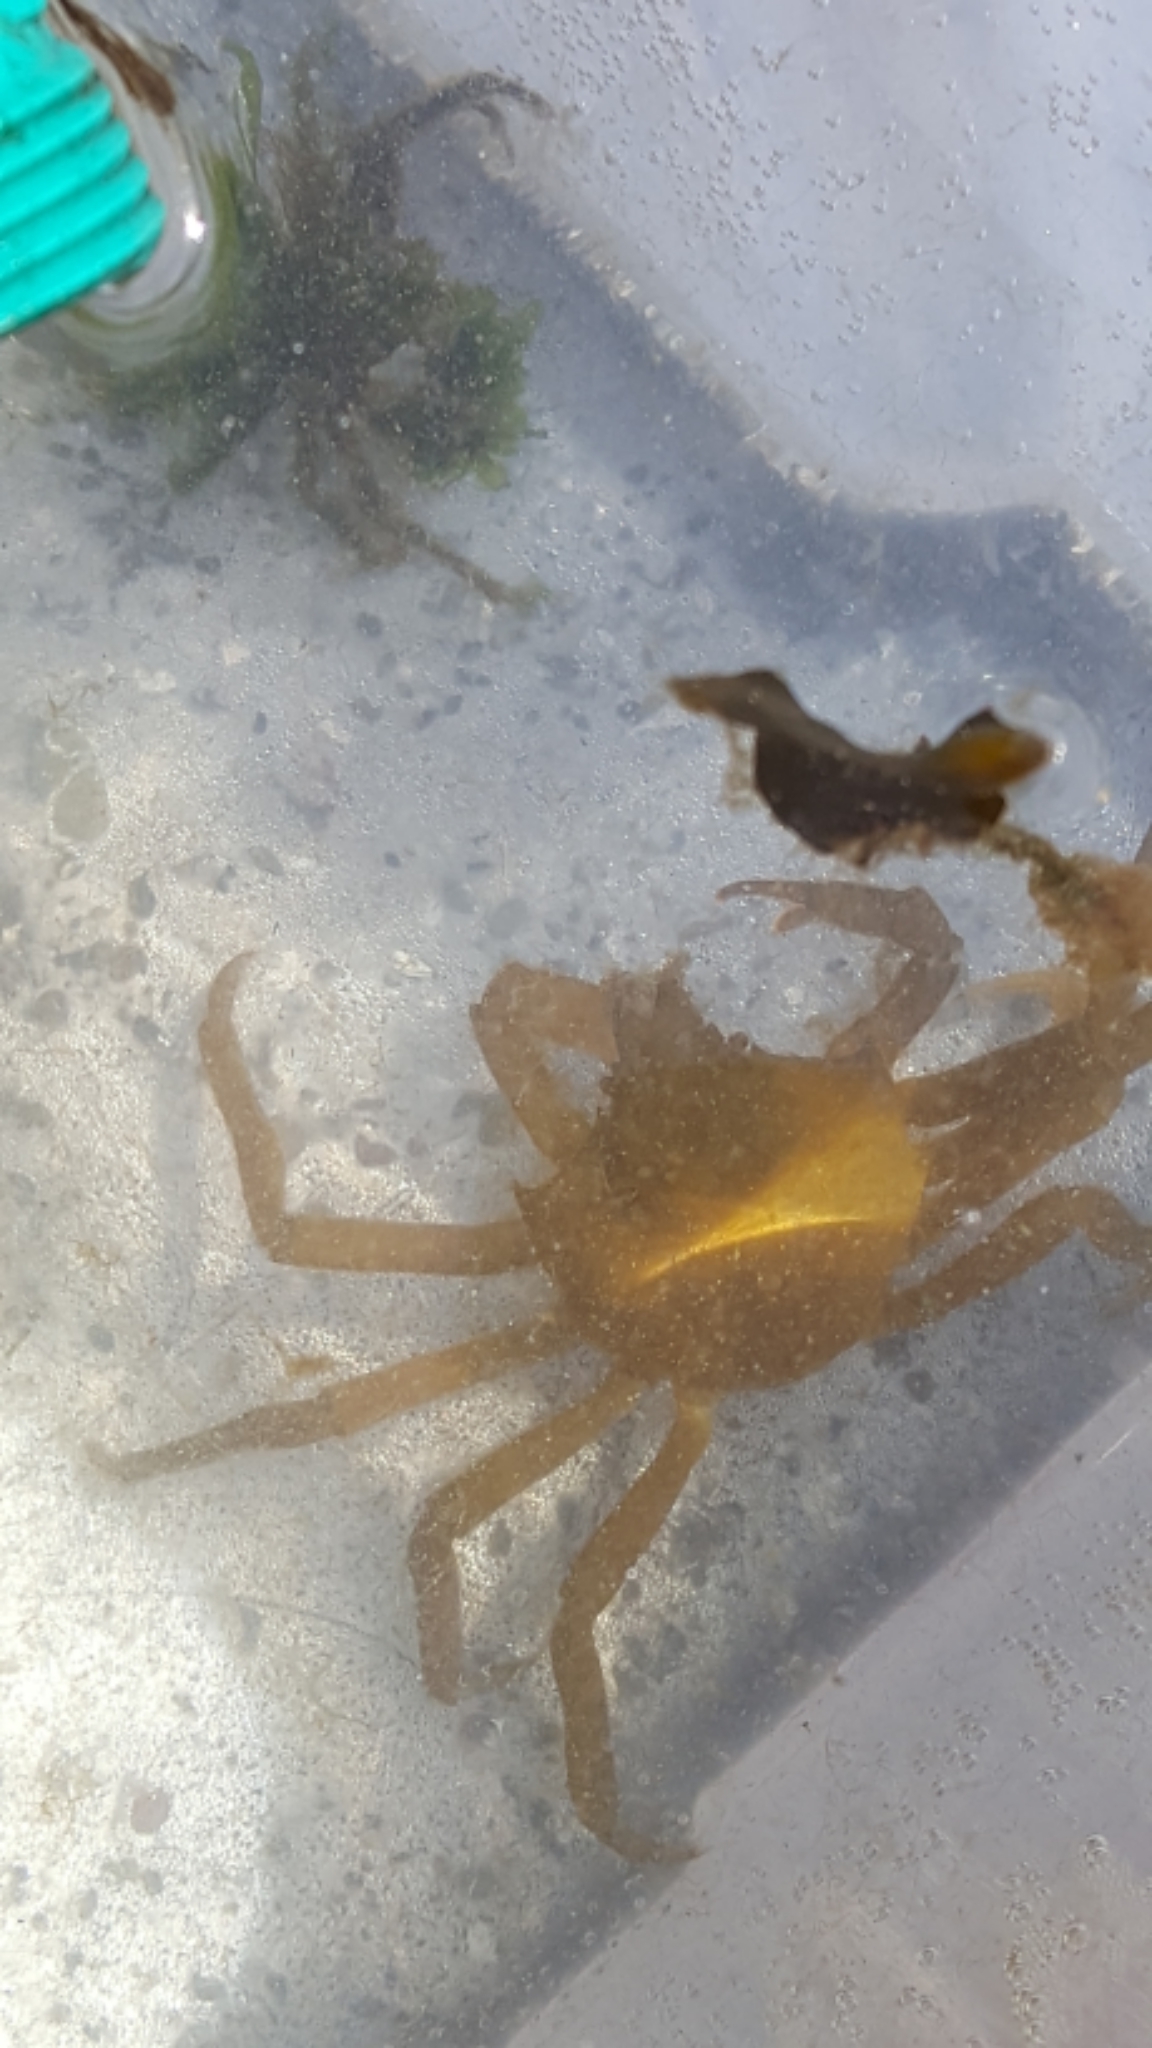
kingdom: Animalia
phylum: Arthropoda
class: Malacostraca
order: Decapoda
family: Epialtidae
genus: Pugettia
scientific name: Pugettia producta
